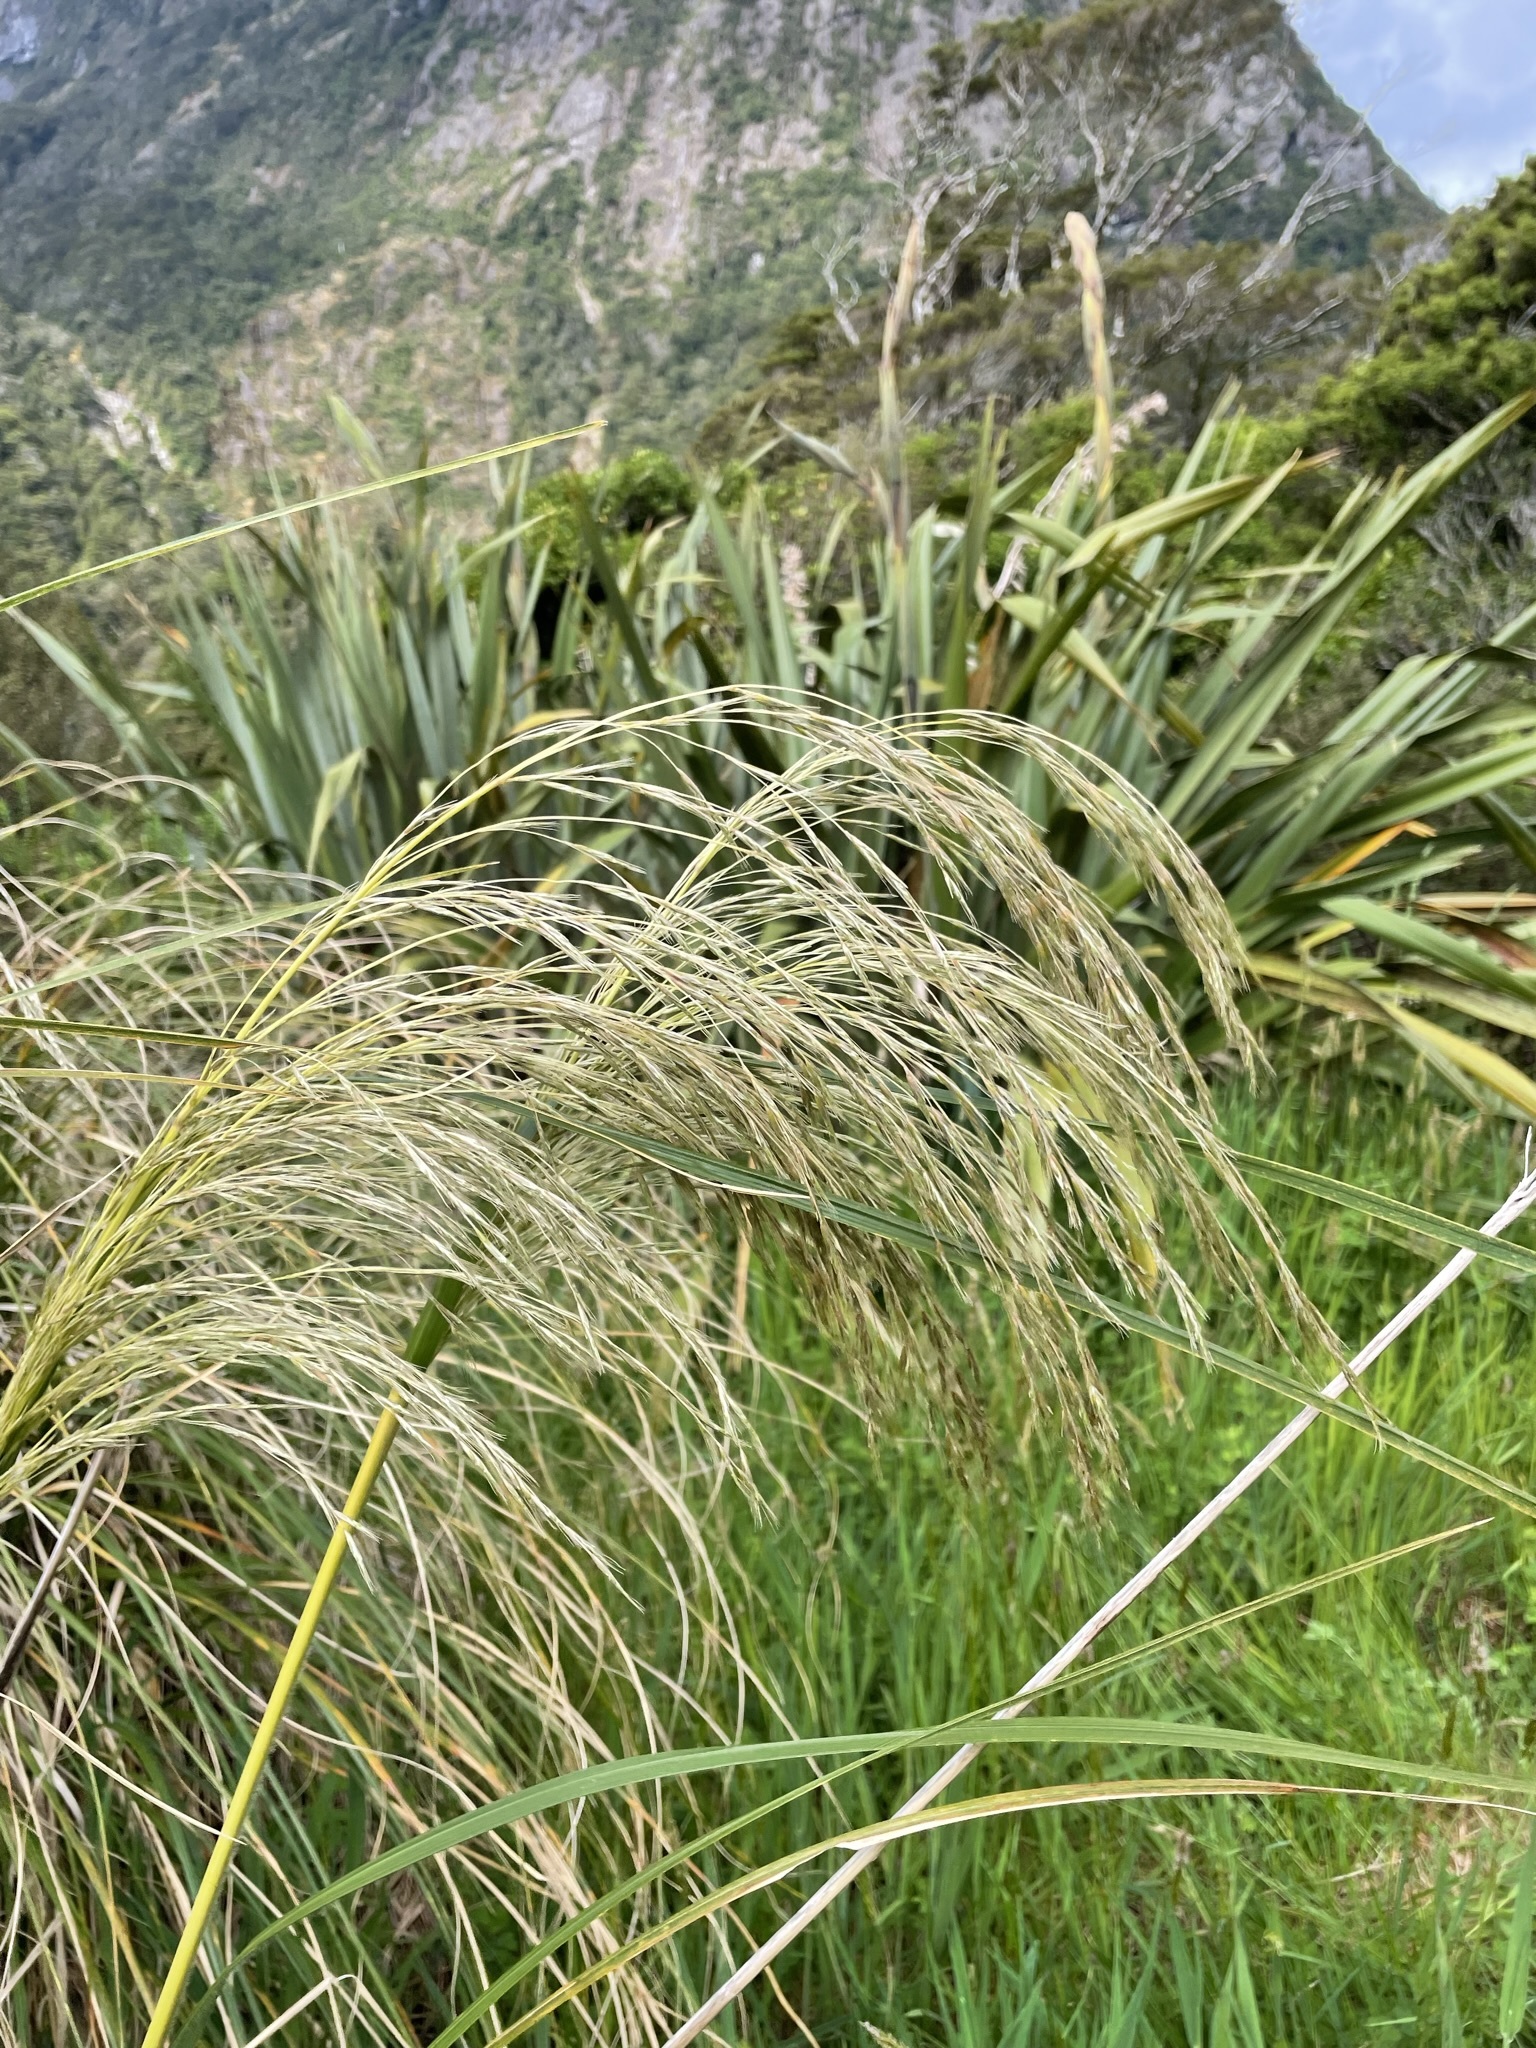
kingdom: Plantae
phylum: Tracheophyta
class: Liliopsida
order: Poales
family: Poaceae
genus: Austroderia
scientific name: Austroderia richardii
